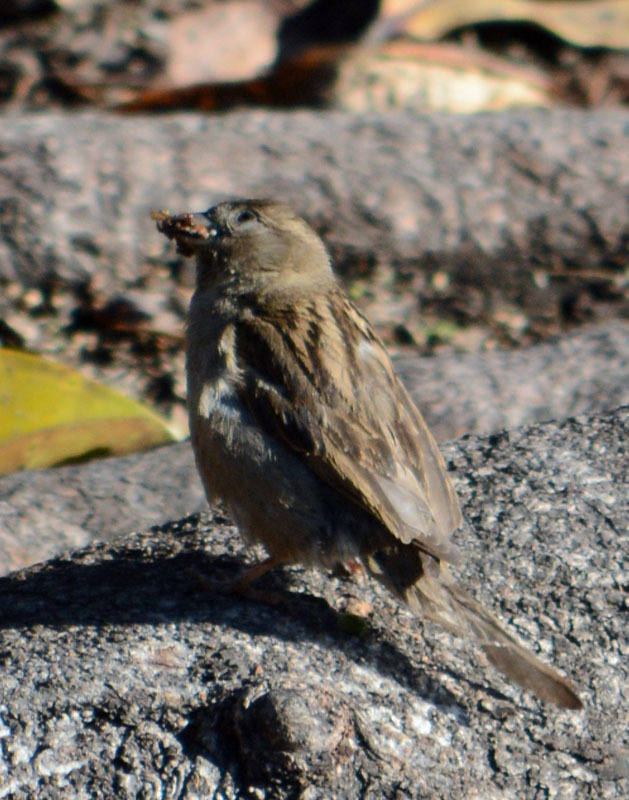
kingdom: Animalia
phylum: Chordata
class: Aves
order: Passeriformes
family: Passeridae
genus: Passer
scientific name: Passer domesticus
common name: House sparrow
